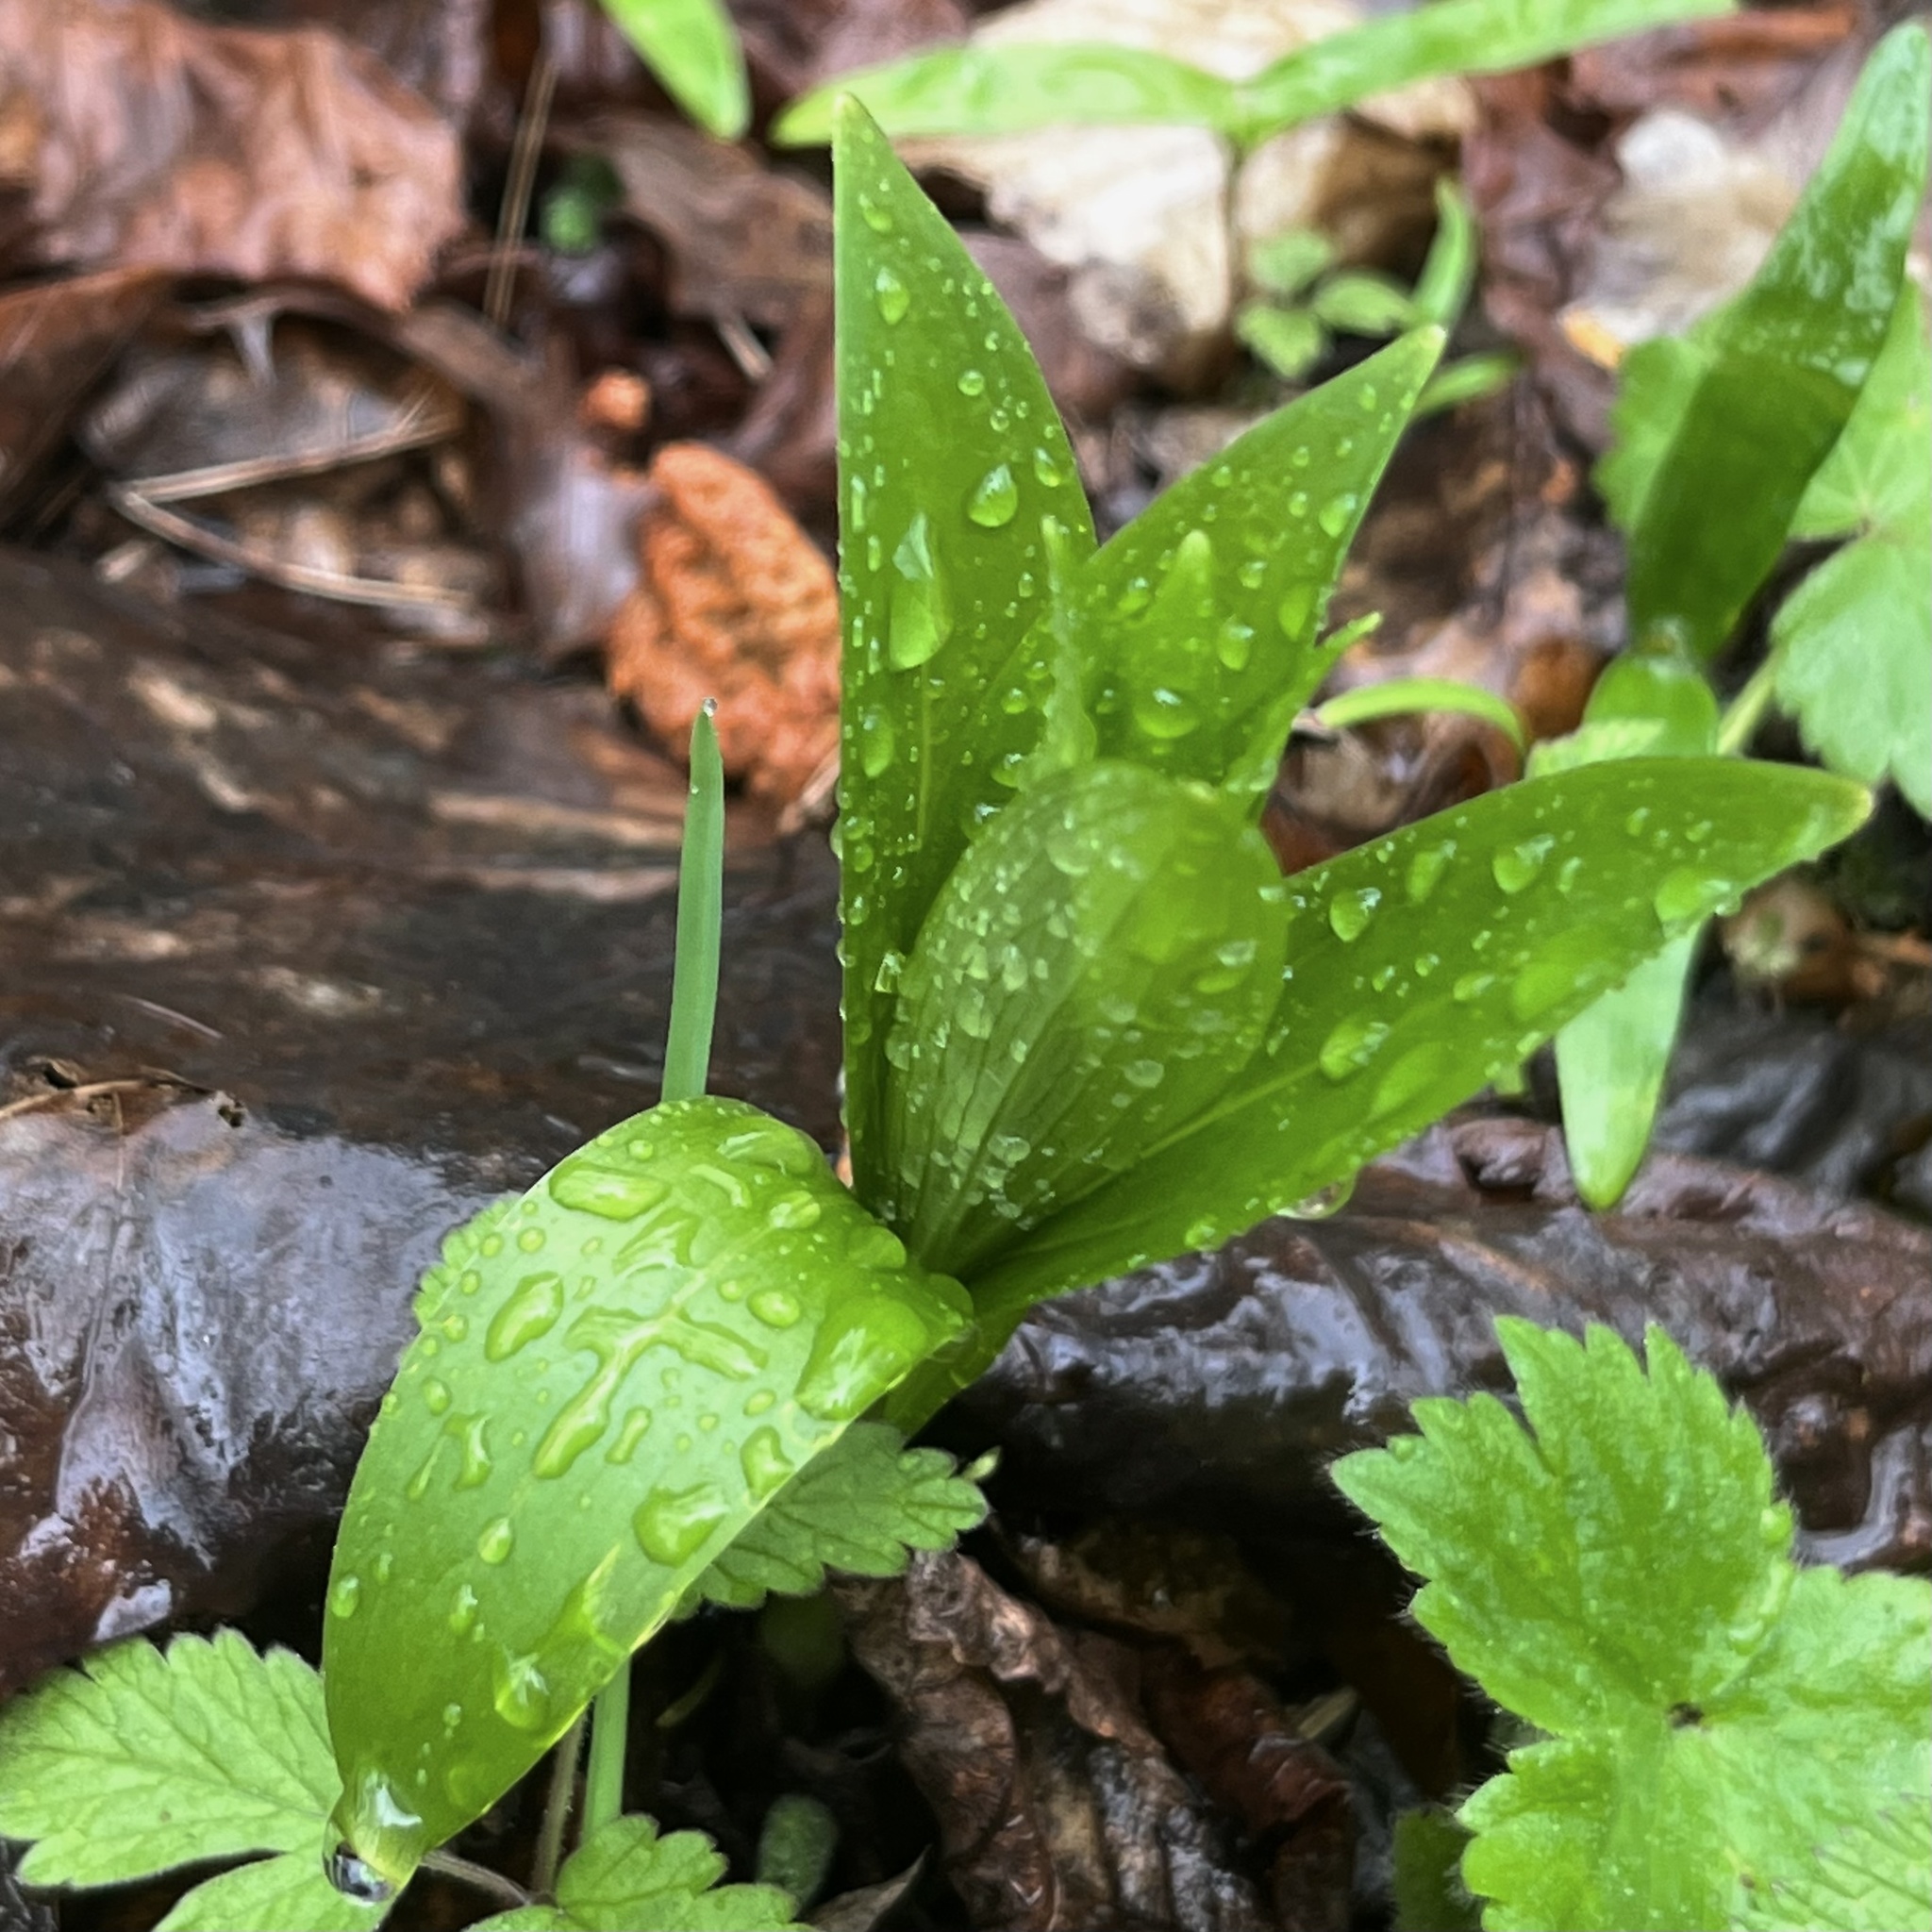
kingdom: Plantae
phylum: Tracheophyta
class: Liliopsida
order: Liliales
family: Liliaceae
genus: Lilium
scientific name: Lilium martagon
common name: Martagon lily
